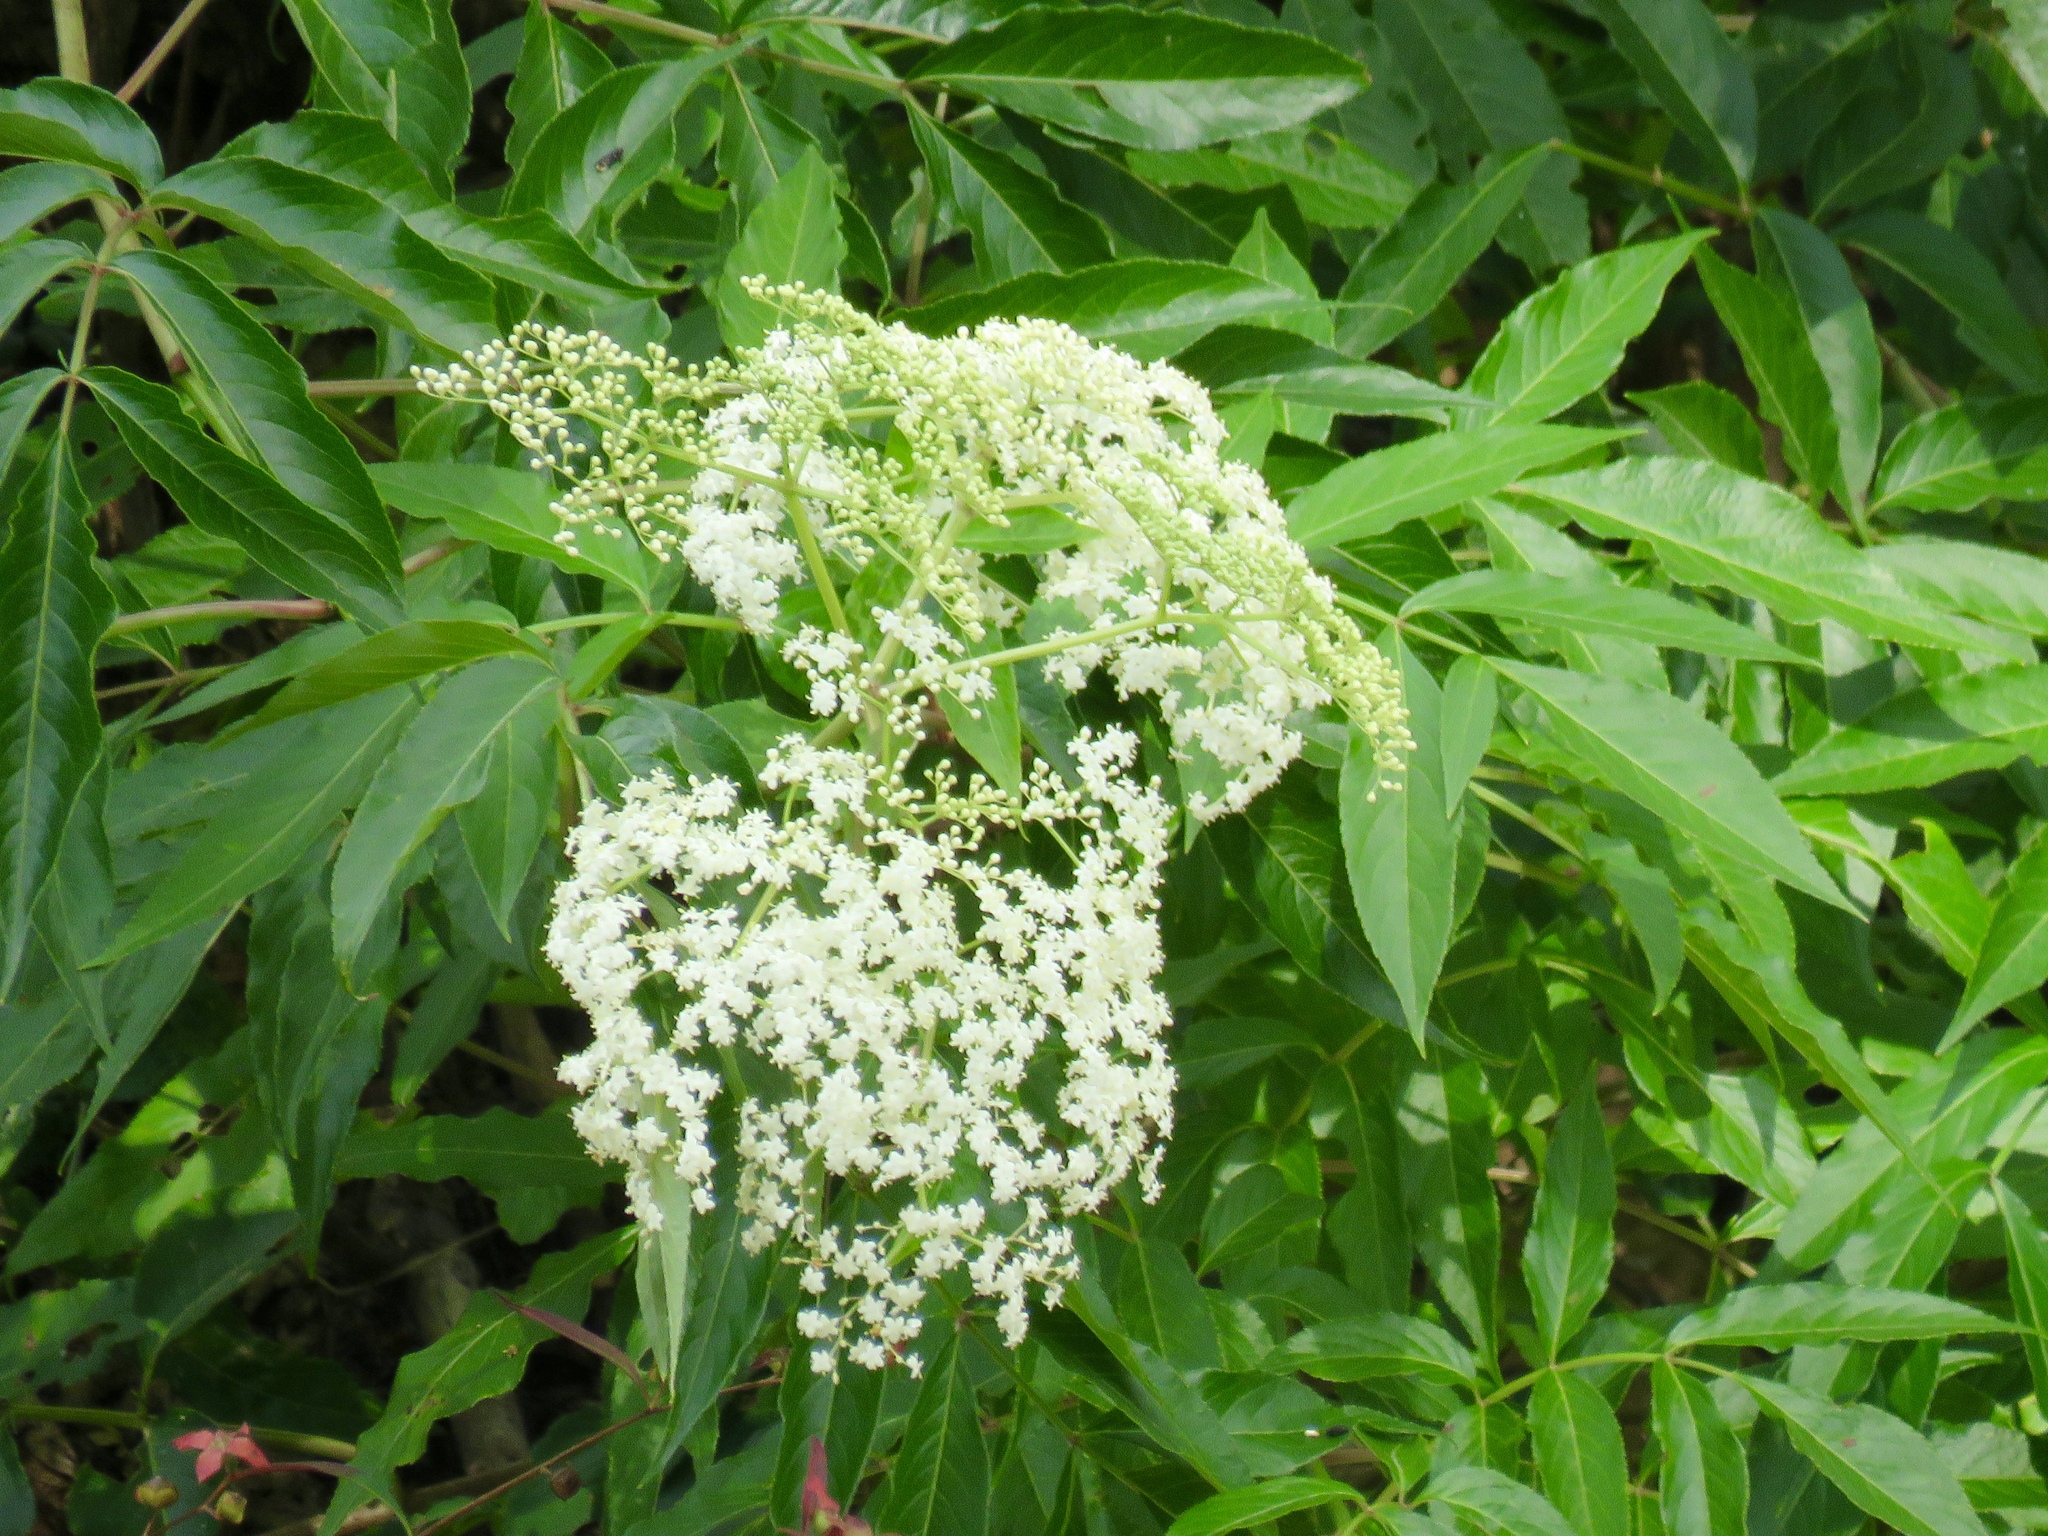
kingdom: Plantae
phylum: Tracheophyta
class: Magnoliopsida
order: Dipsacales
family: Viburnaceae
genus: Sambucus
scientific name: Sambucus canadensis
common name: American elder
